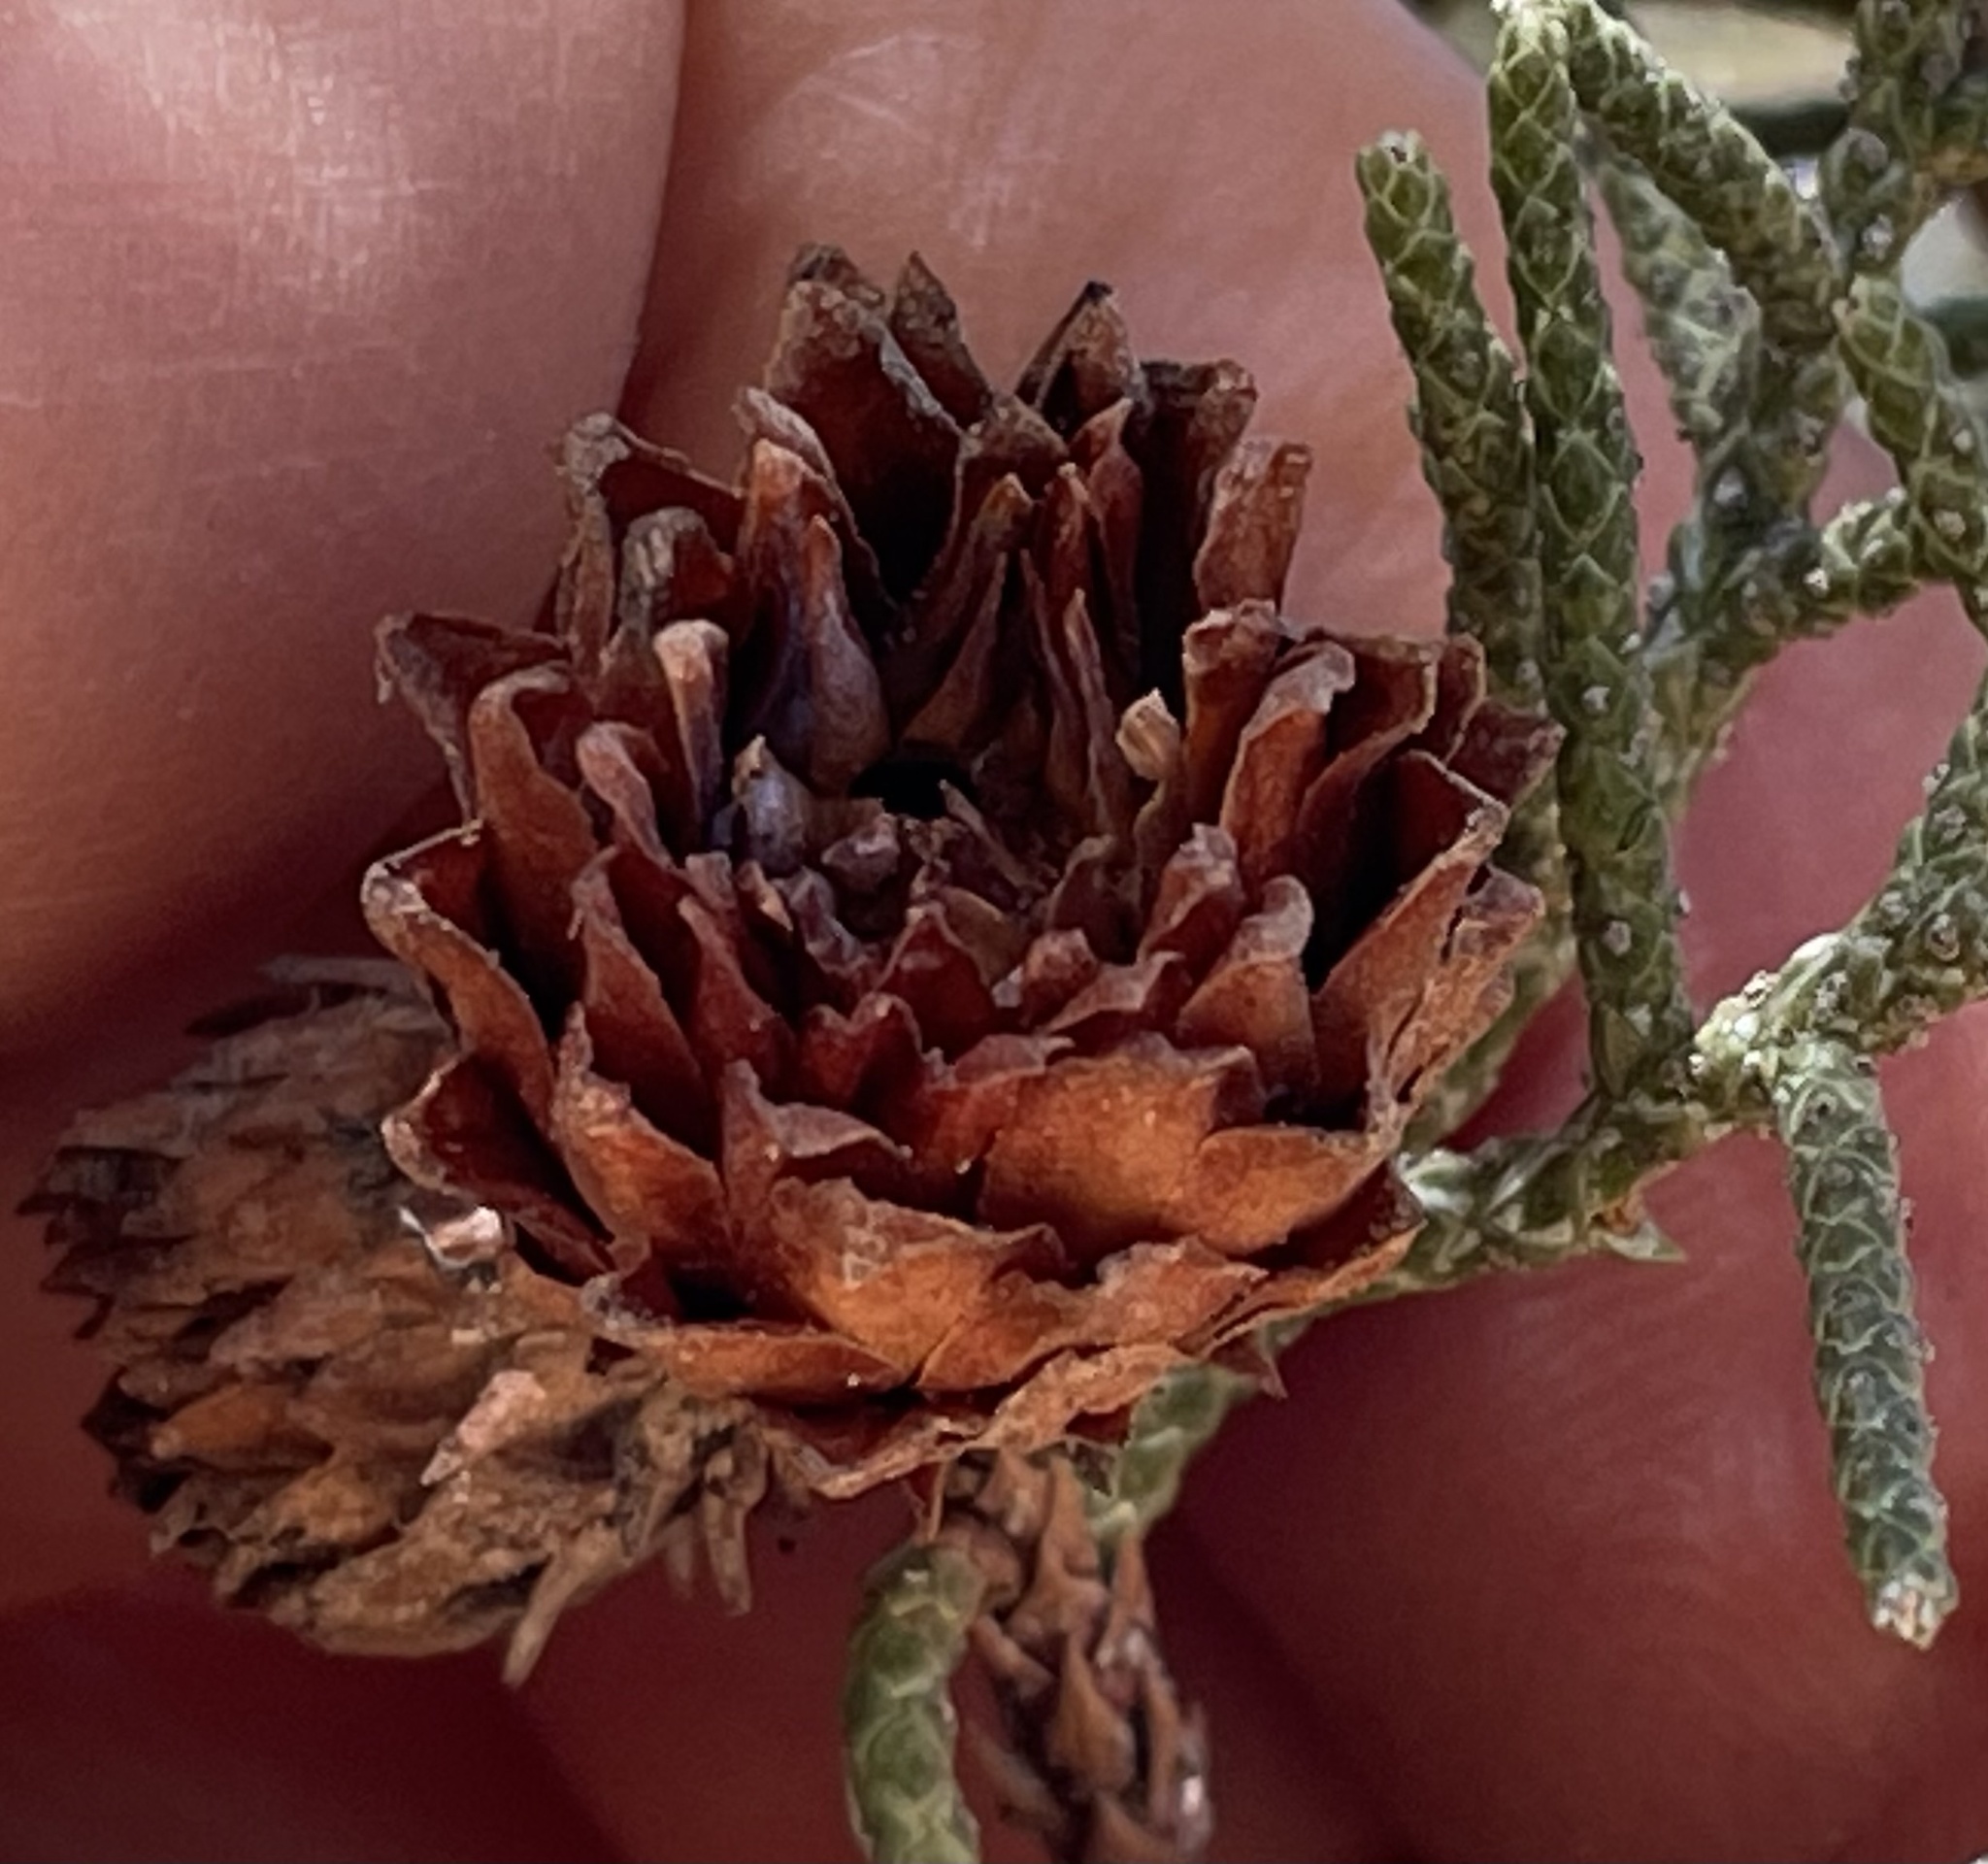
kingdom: Animalia
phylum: Arthropoda
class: Insecta
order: Diptera
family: Cecidomyiidae
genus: Walshomyia
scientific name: Walshomyia
